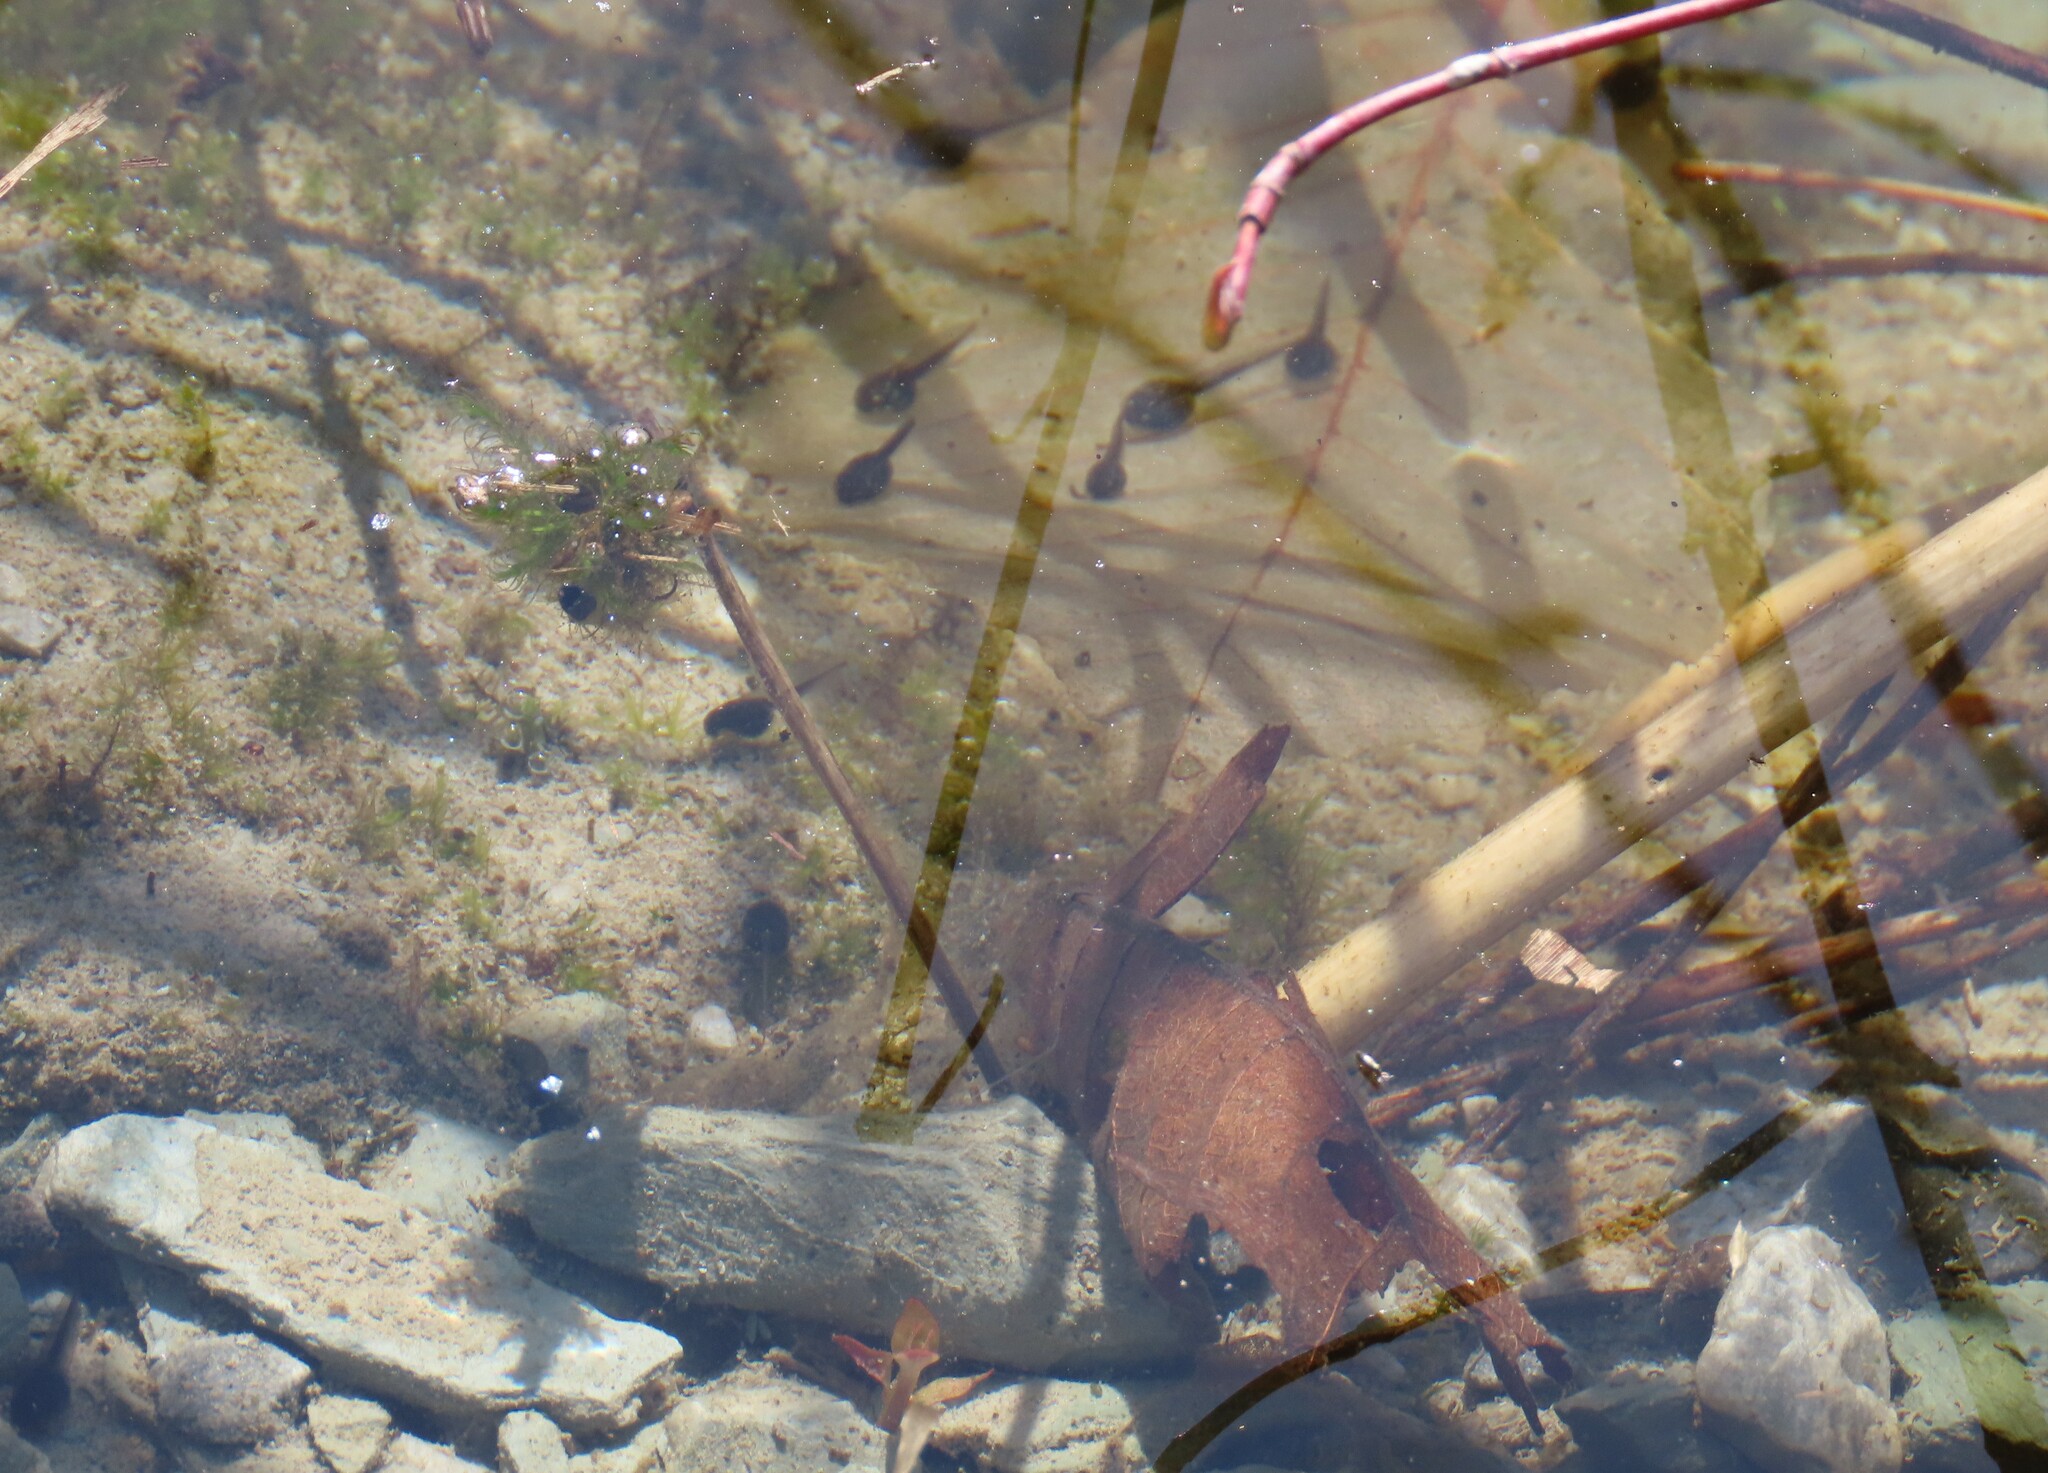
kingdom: Animalia
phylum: Chordata
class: Amphibia
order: Anura
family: Ranidae
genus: Lithobates
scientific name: Lithobates sylvaticus
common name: Wood frog
